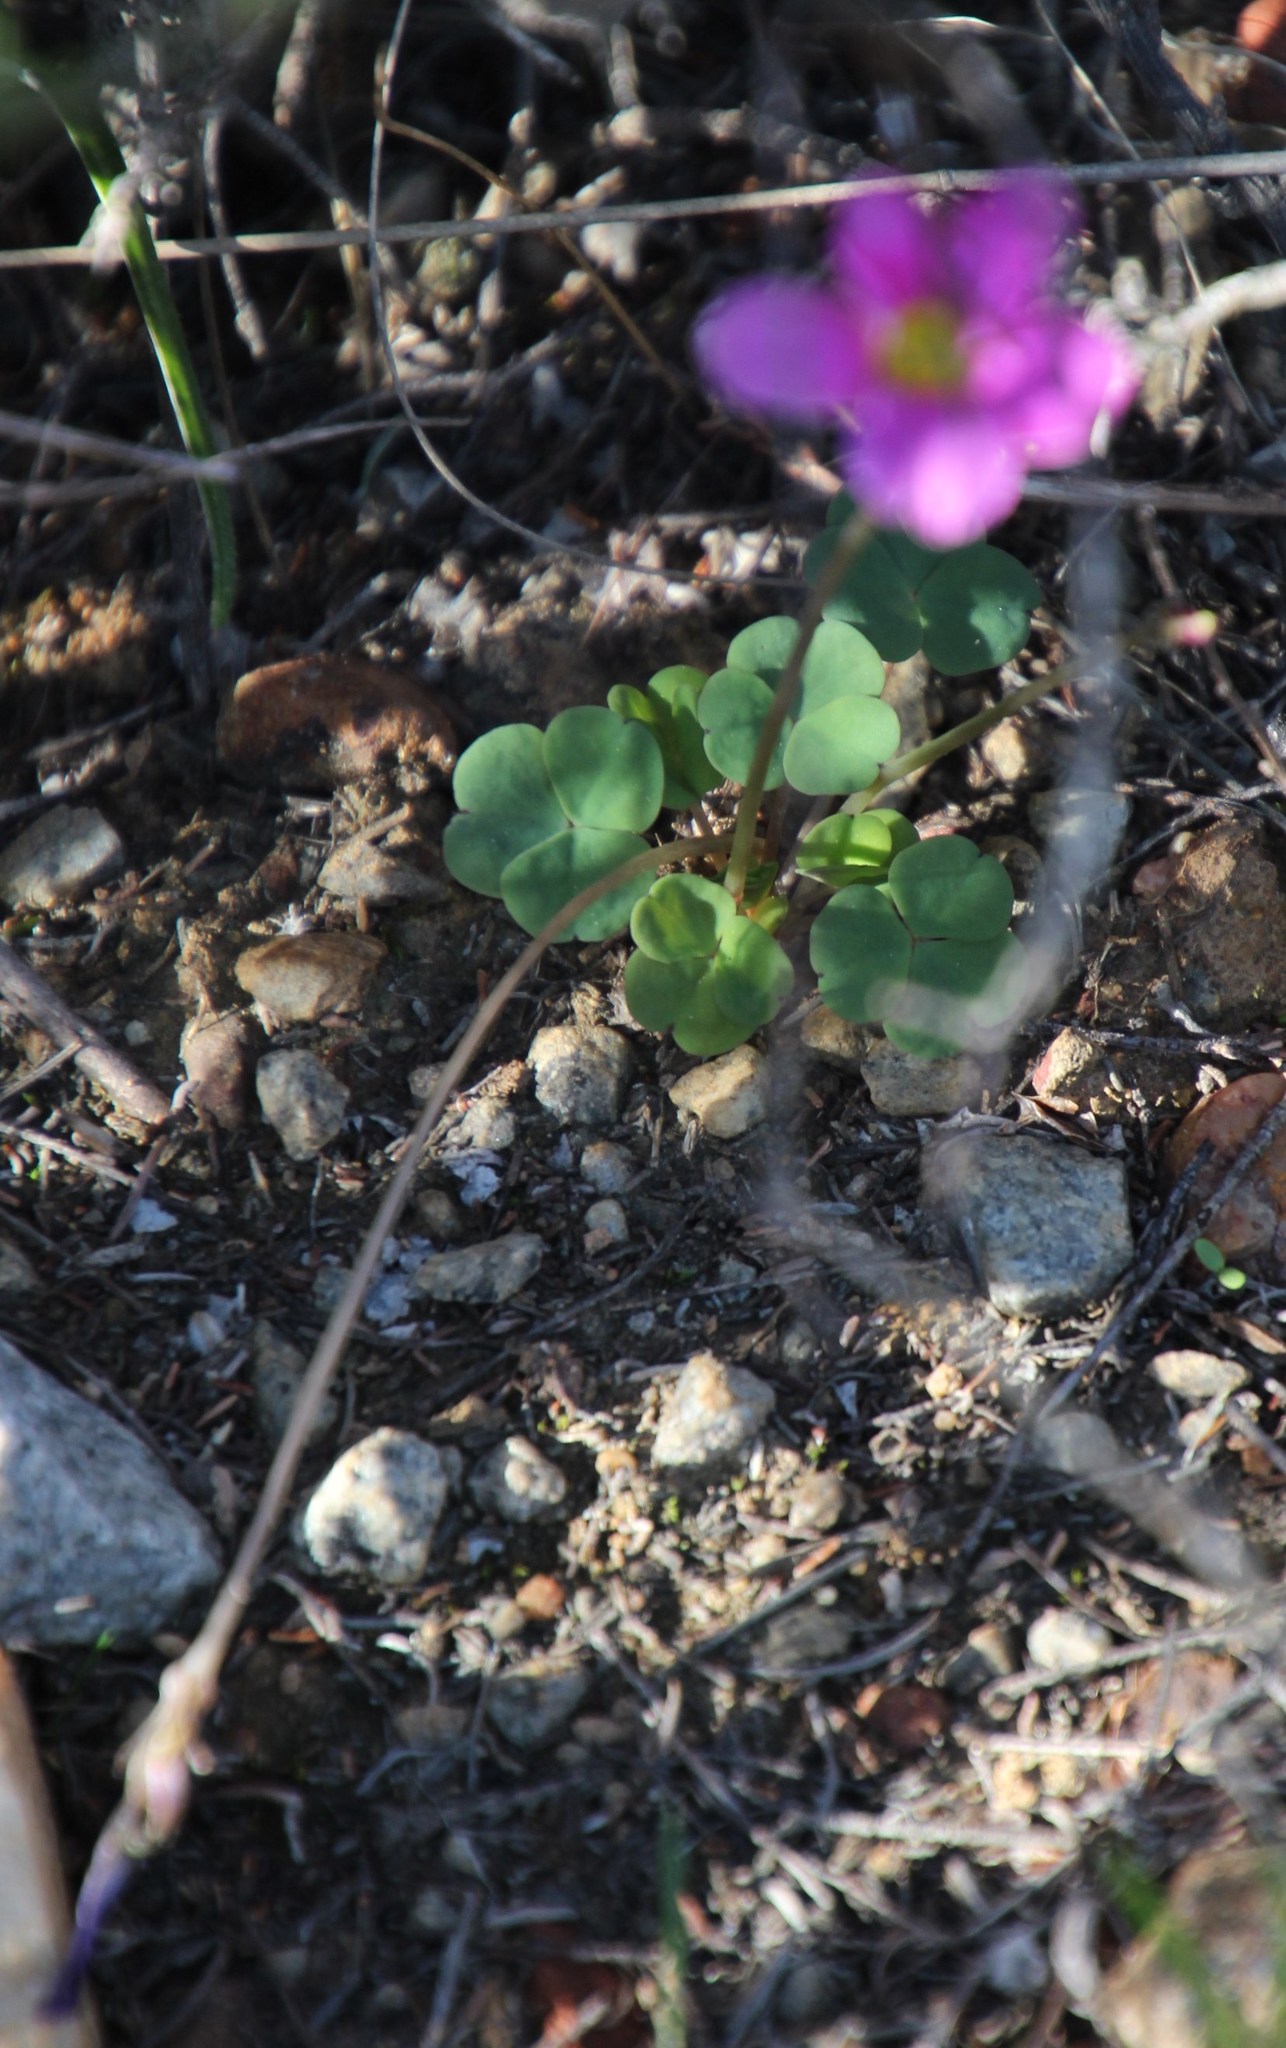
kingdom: Plantae
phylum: Tracheophyta
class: Magnoliopsida
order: Oxalidales
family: Oxalidaceae
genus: Oxalis
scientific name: Oxalis pocockiae
